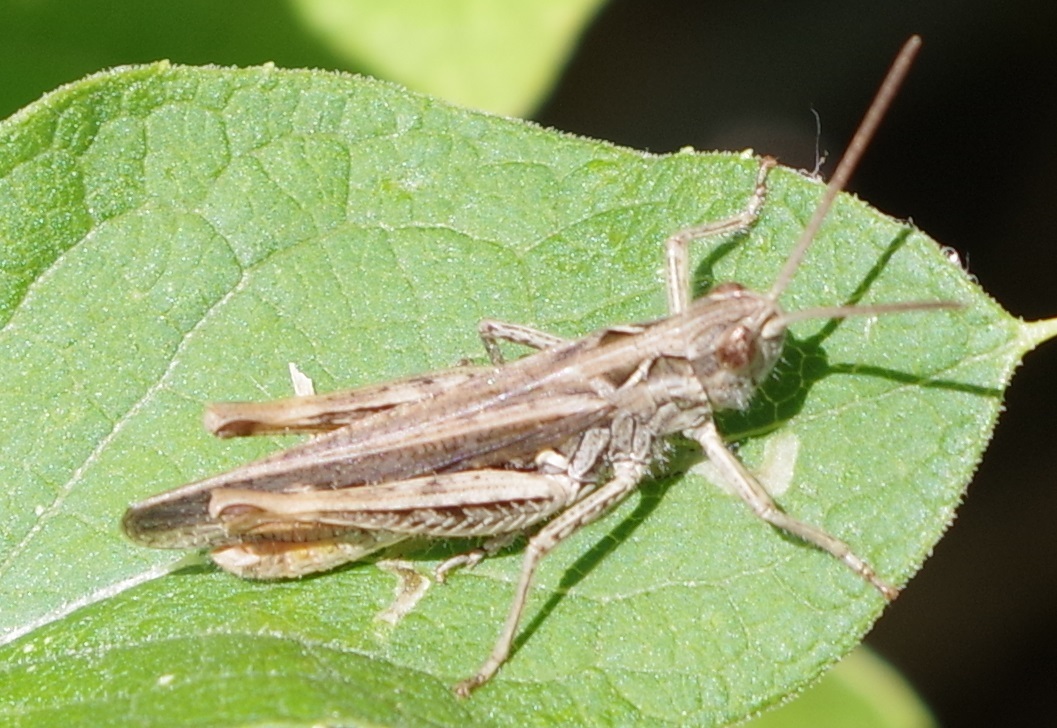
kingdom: Animalia
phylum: Arthropoda
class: Insecta
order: Orthoptera
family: Acrididae
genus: Chorthippus
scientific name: Chorthippus biguttulus
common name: Bow-winged grasshopper
